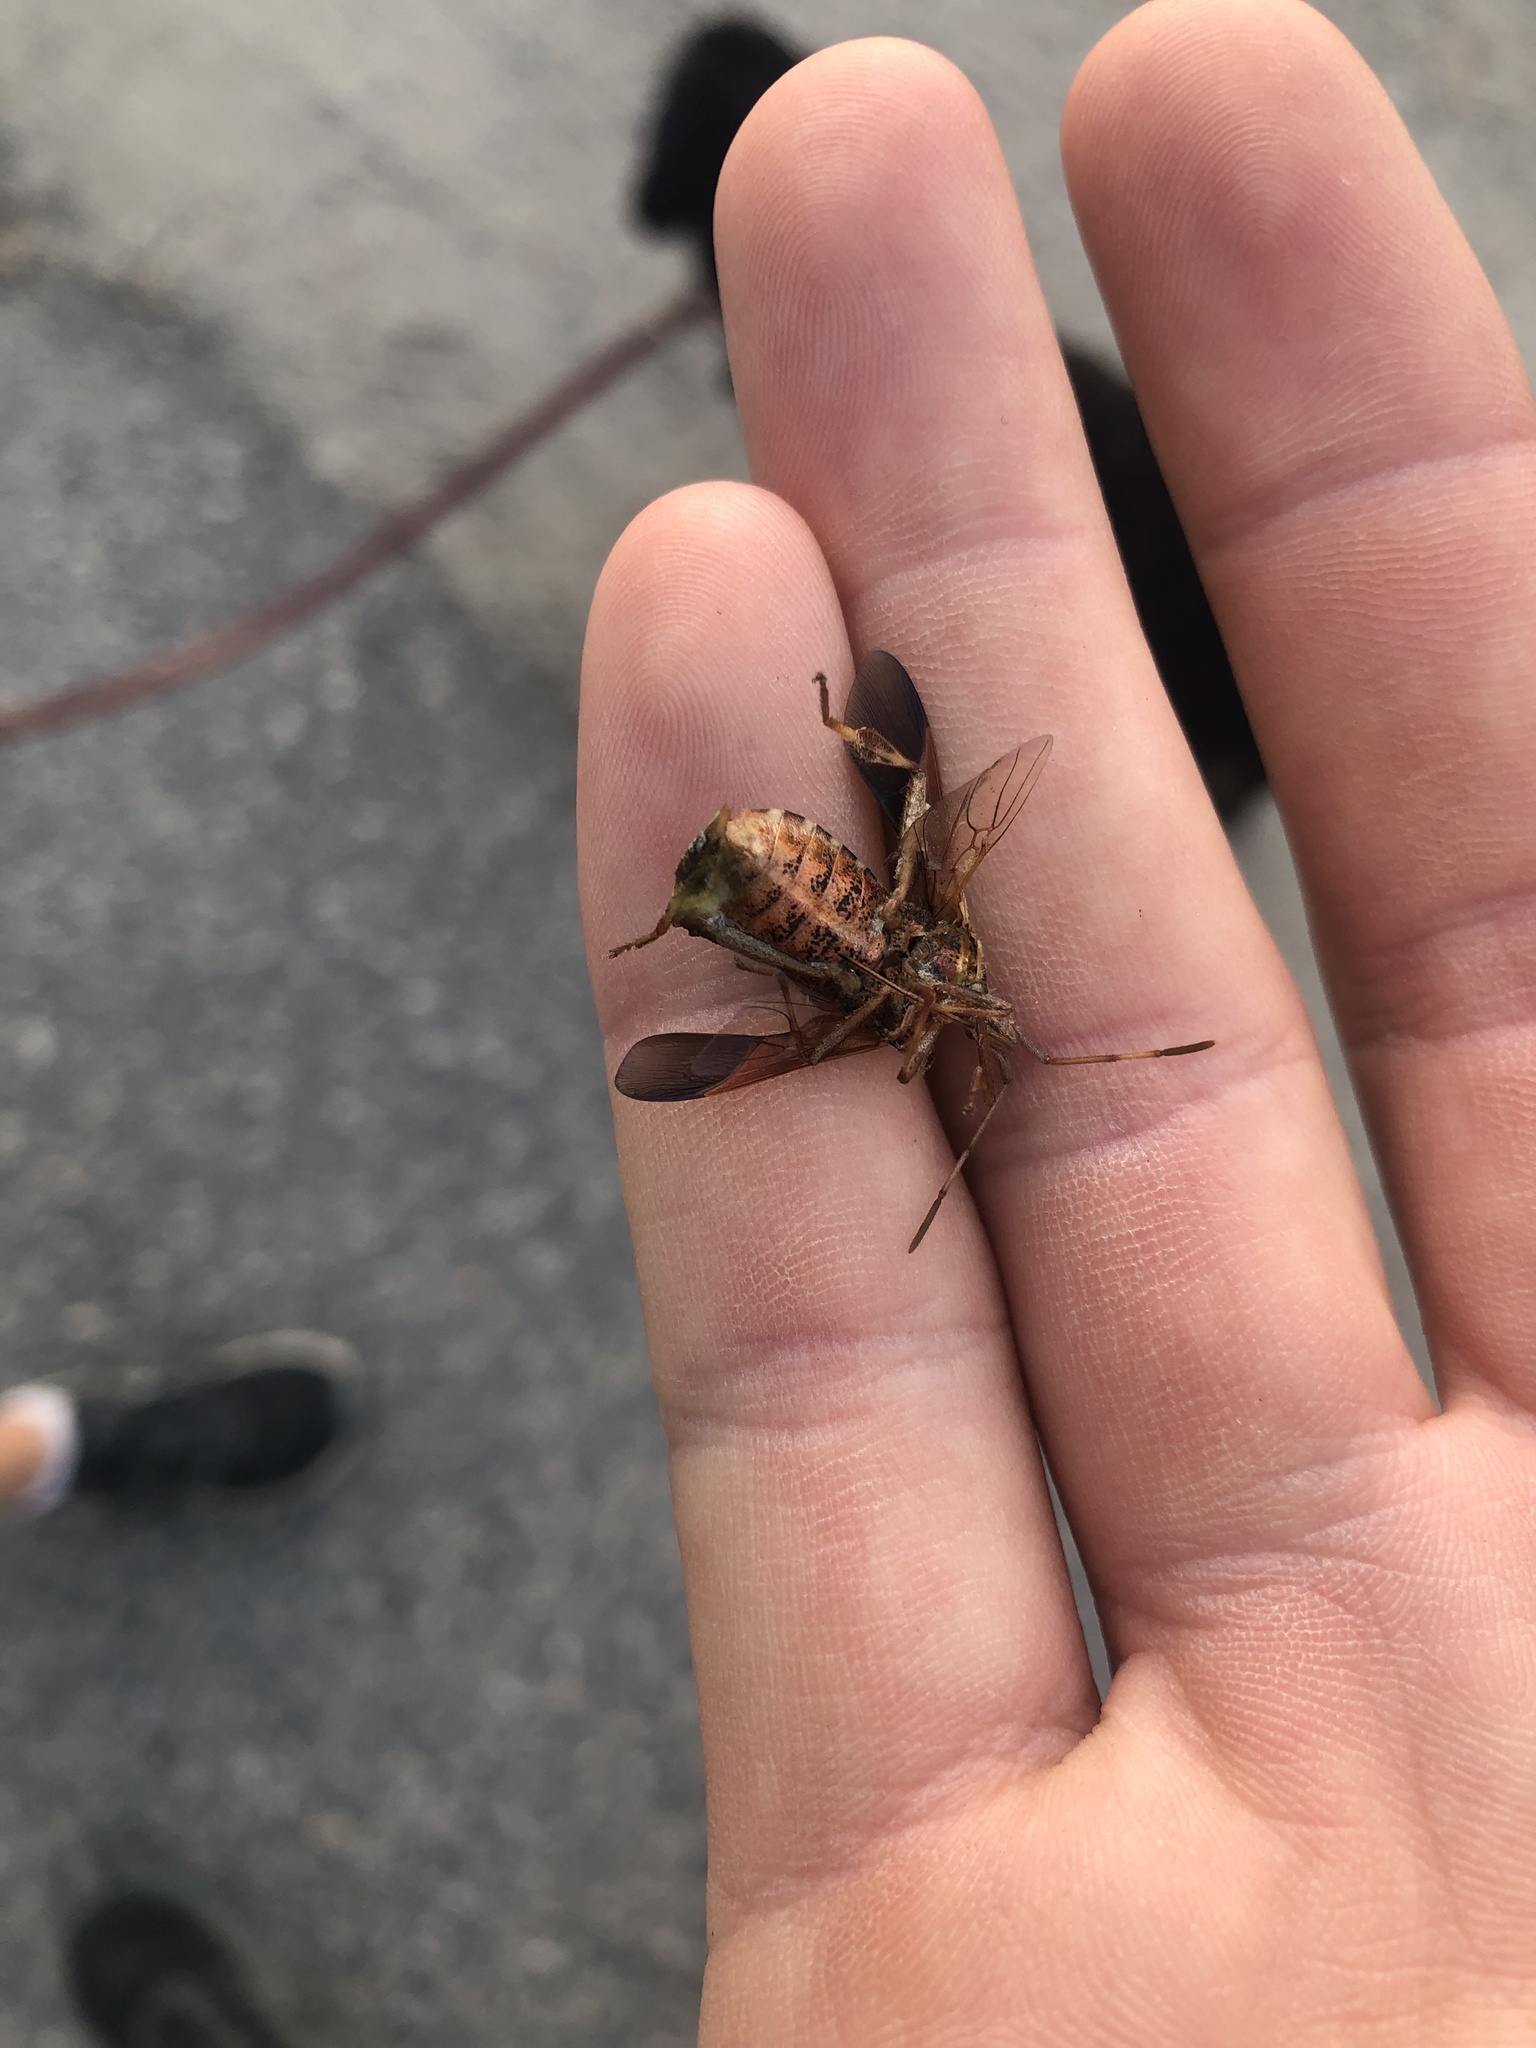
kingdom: Animalia
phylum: Arthropoda
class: Insecta
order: Hemiptera
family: Coreidae
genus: Leptoglossus
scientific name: Leptoglossus occidentalis
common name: Western conifer-seed bug
